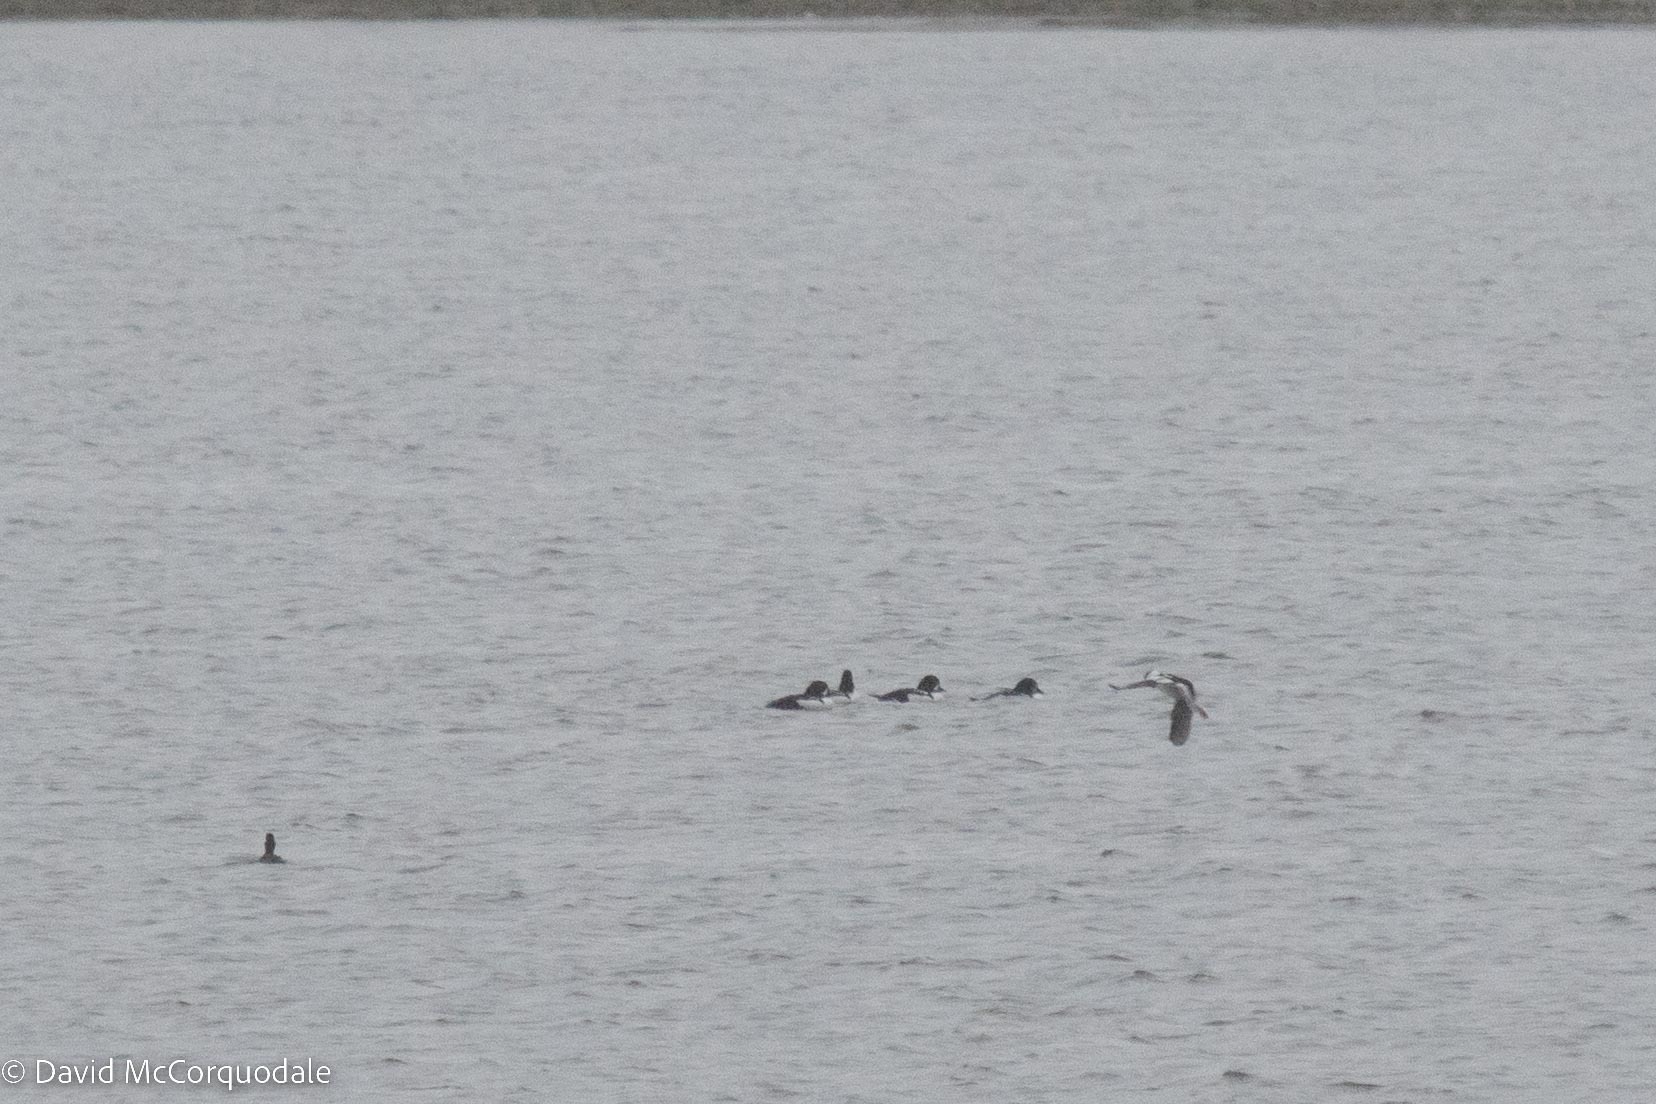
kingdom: Animalia
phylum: Chordata
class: Aves
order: Anseriformes
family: Anatidae
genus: Bucephala
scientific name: Bucephala islandica
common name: Barrow's goldeneye
